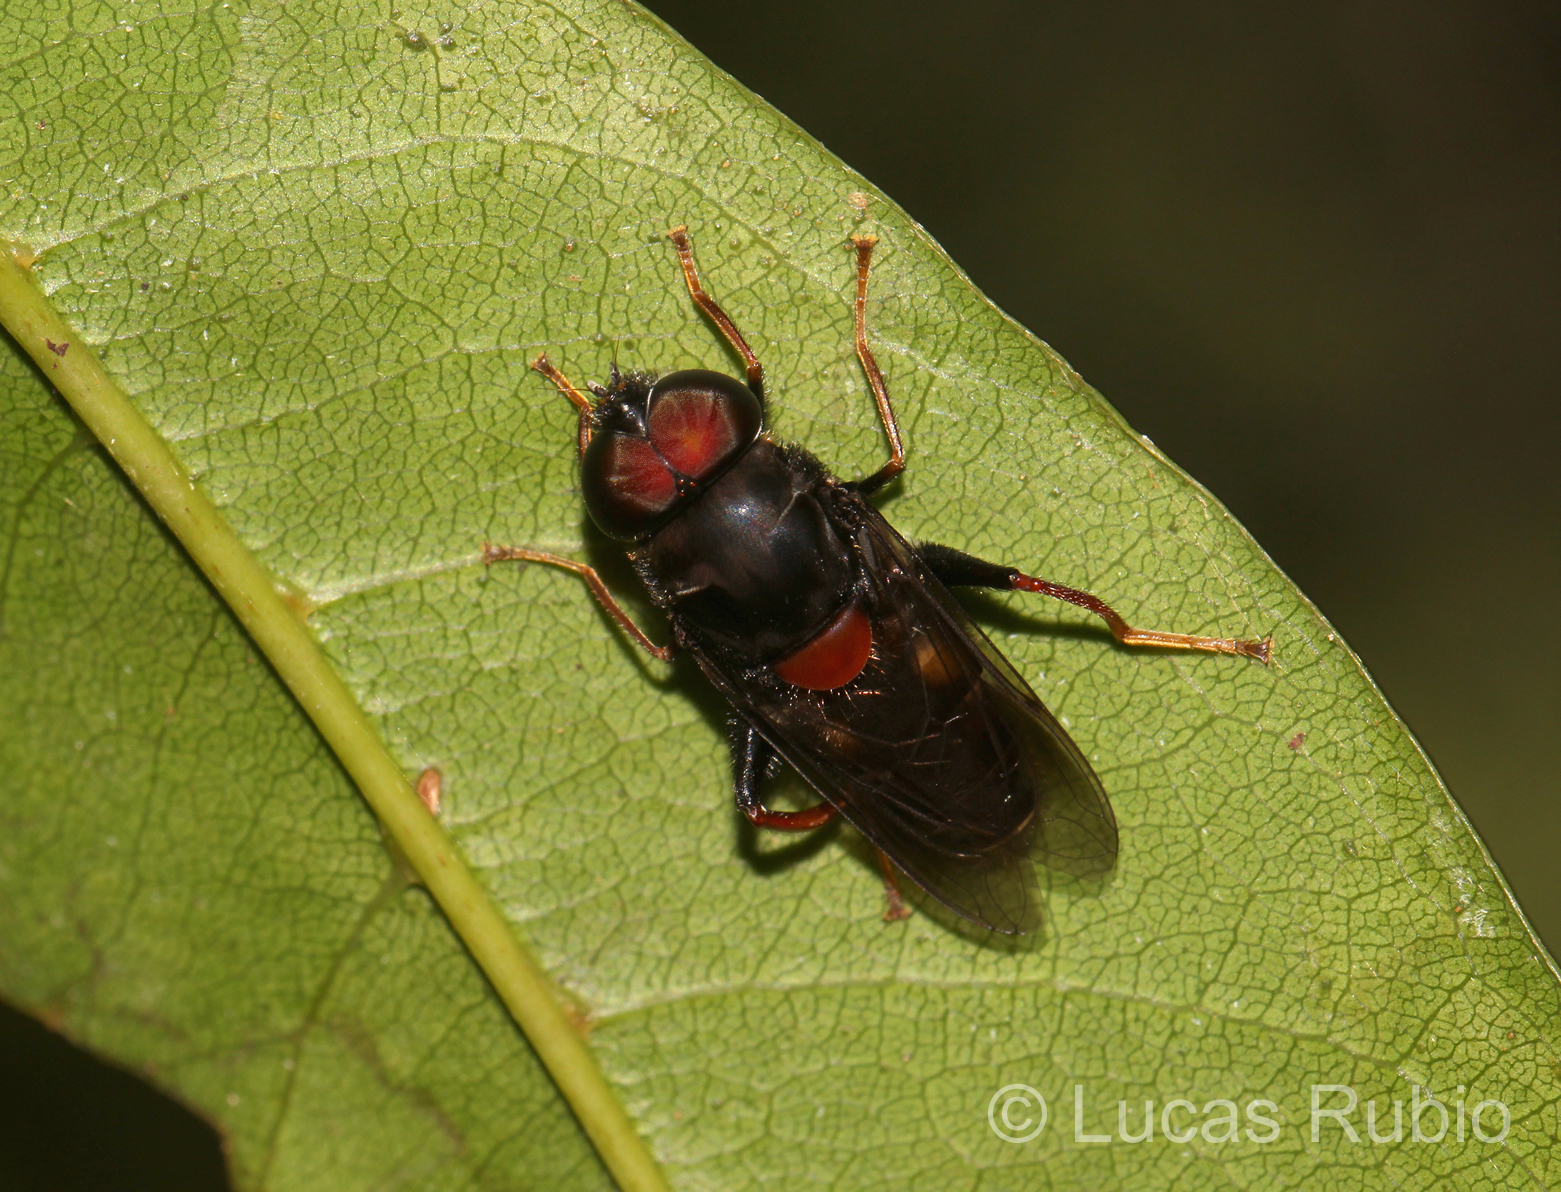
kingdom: Animalia
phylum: Arthropoda
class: Insecta
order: Diptera
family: Syrphidae
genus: Palpada
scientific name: Palpada rufoscutellata
